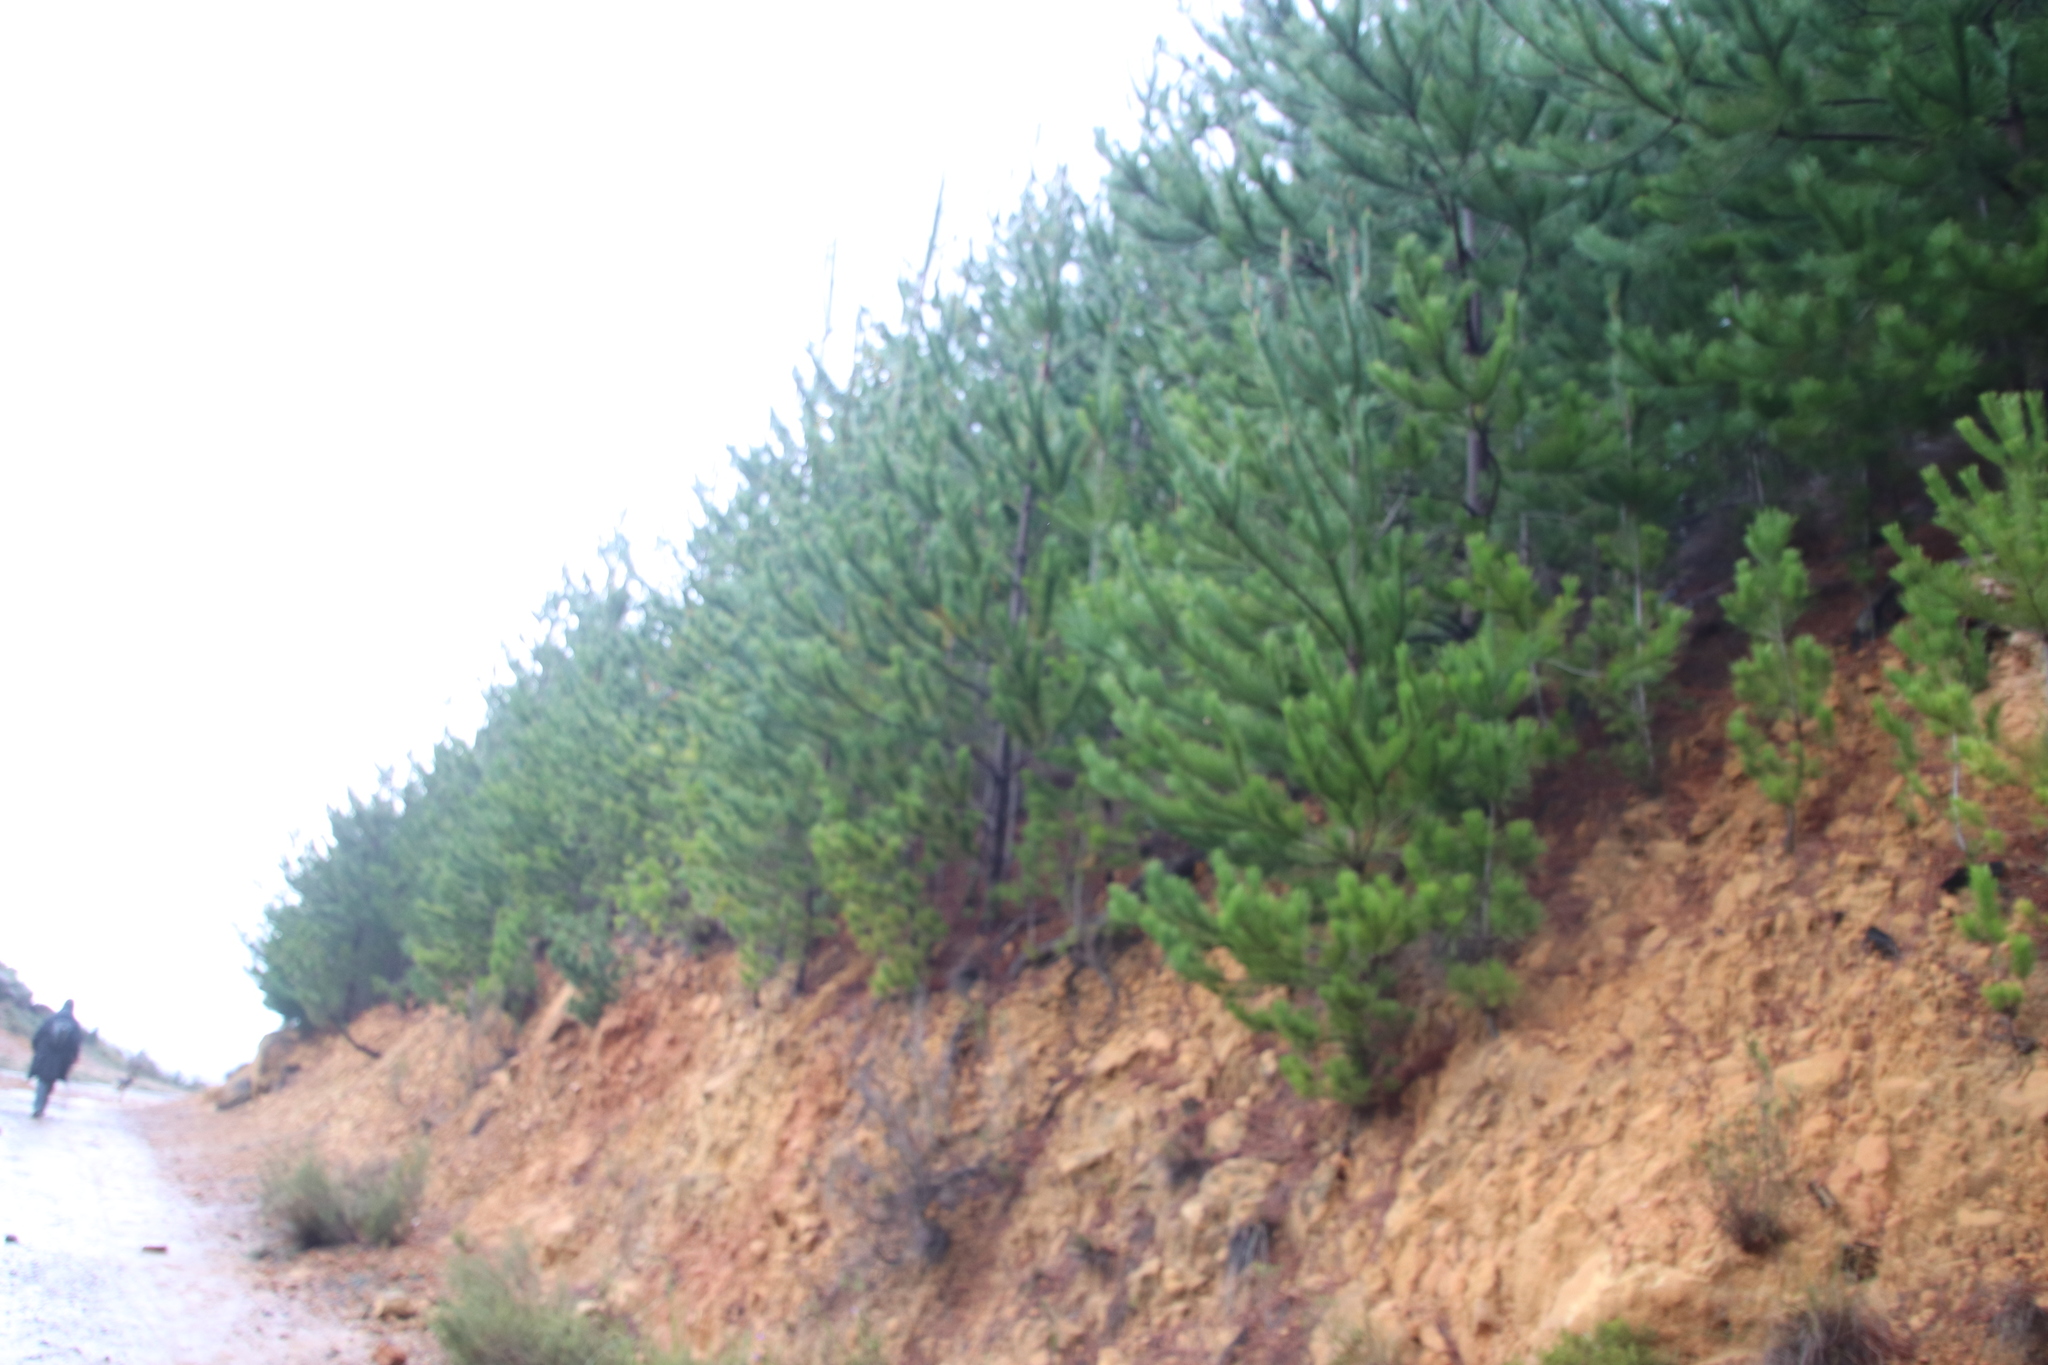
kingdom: Plantae
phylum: Tracheophyta
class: Pinopsida
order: Pinales
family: Pinaceae
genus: Pinus
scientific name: Pinus radiata
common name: Monterey pine
